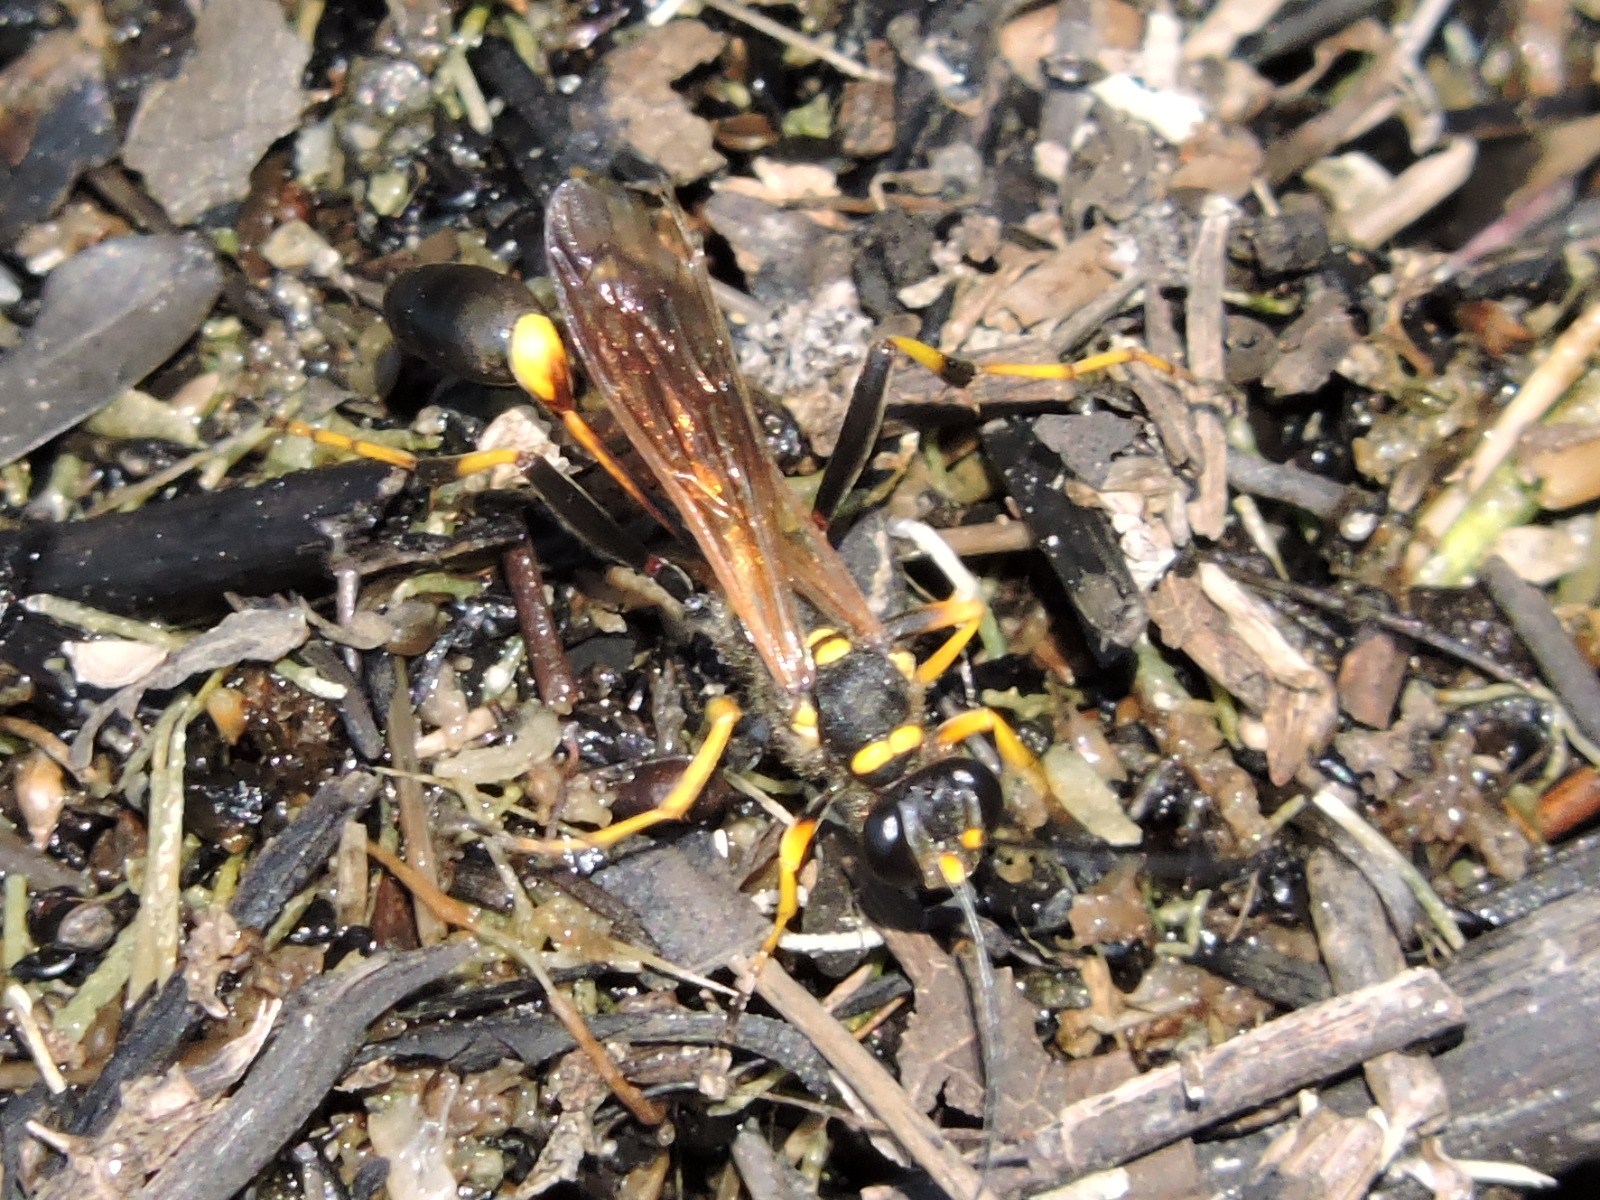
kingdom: Animalia
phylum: Arthropoda
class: Insecta
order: Hymenoptera
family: Sphecidae
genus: Sceliphron
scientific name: Sceliphron caementarium
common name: Mud dauber
